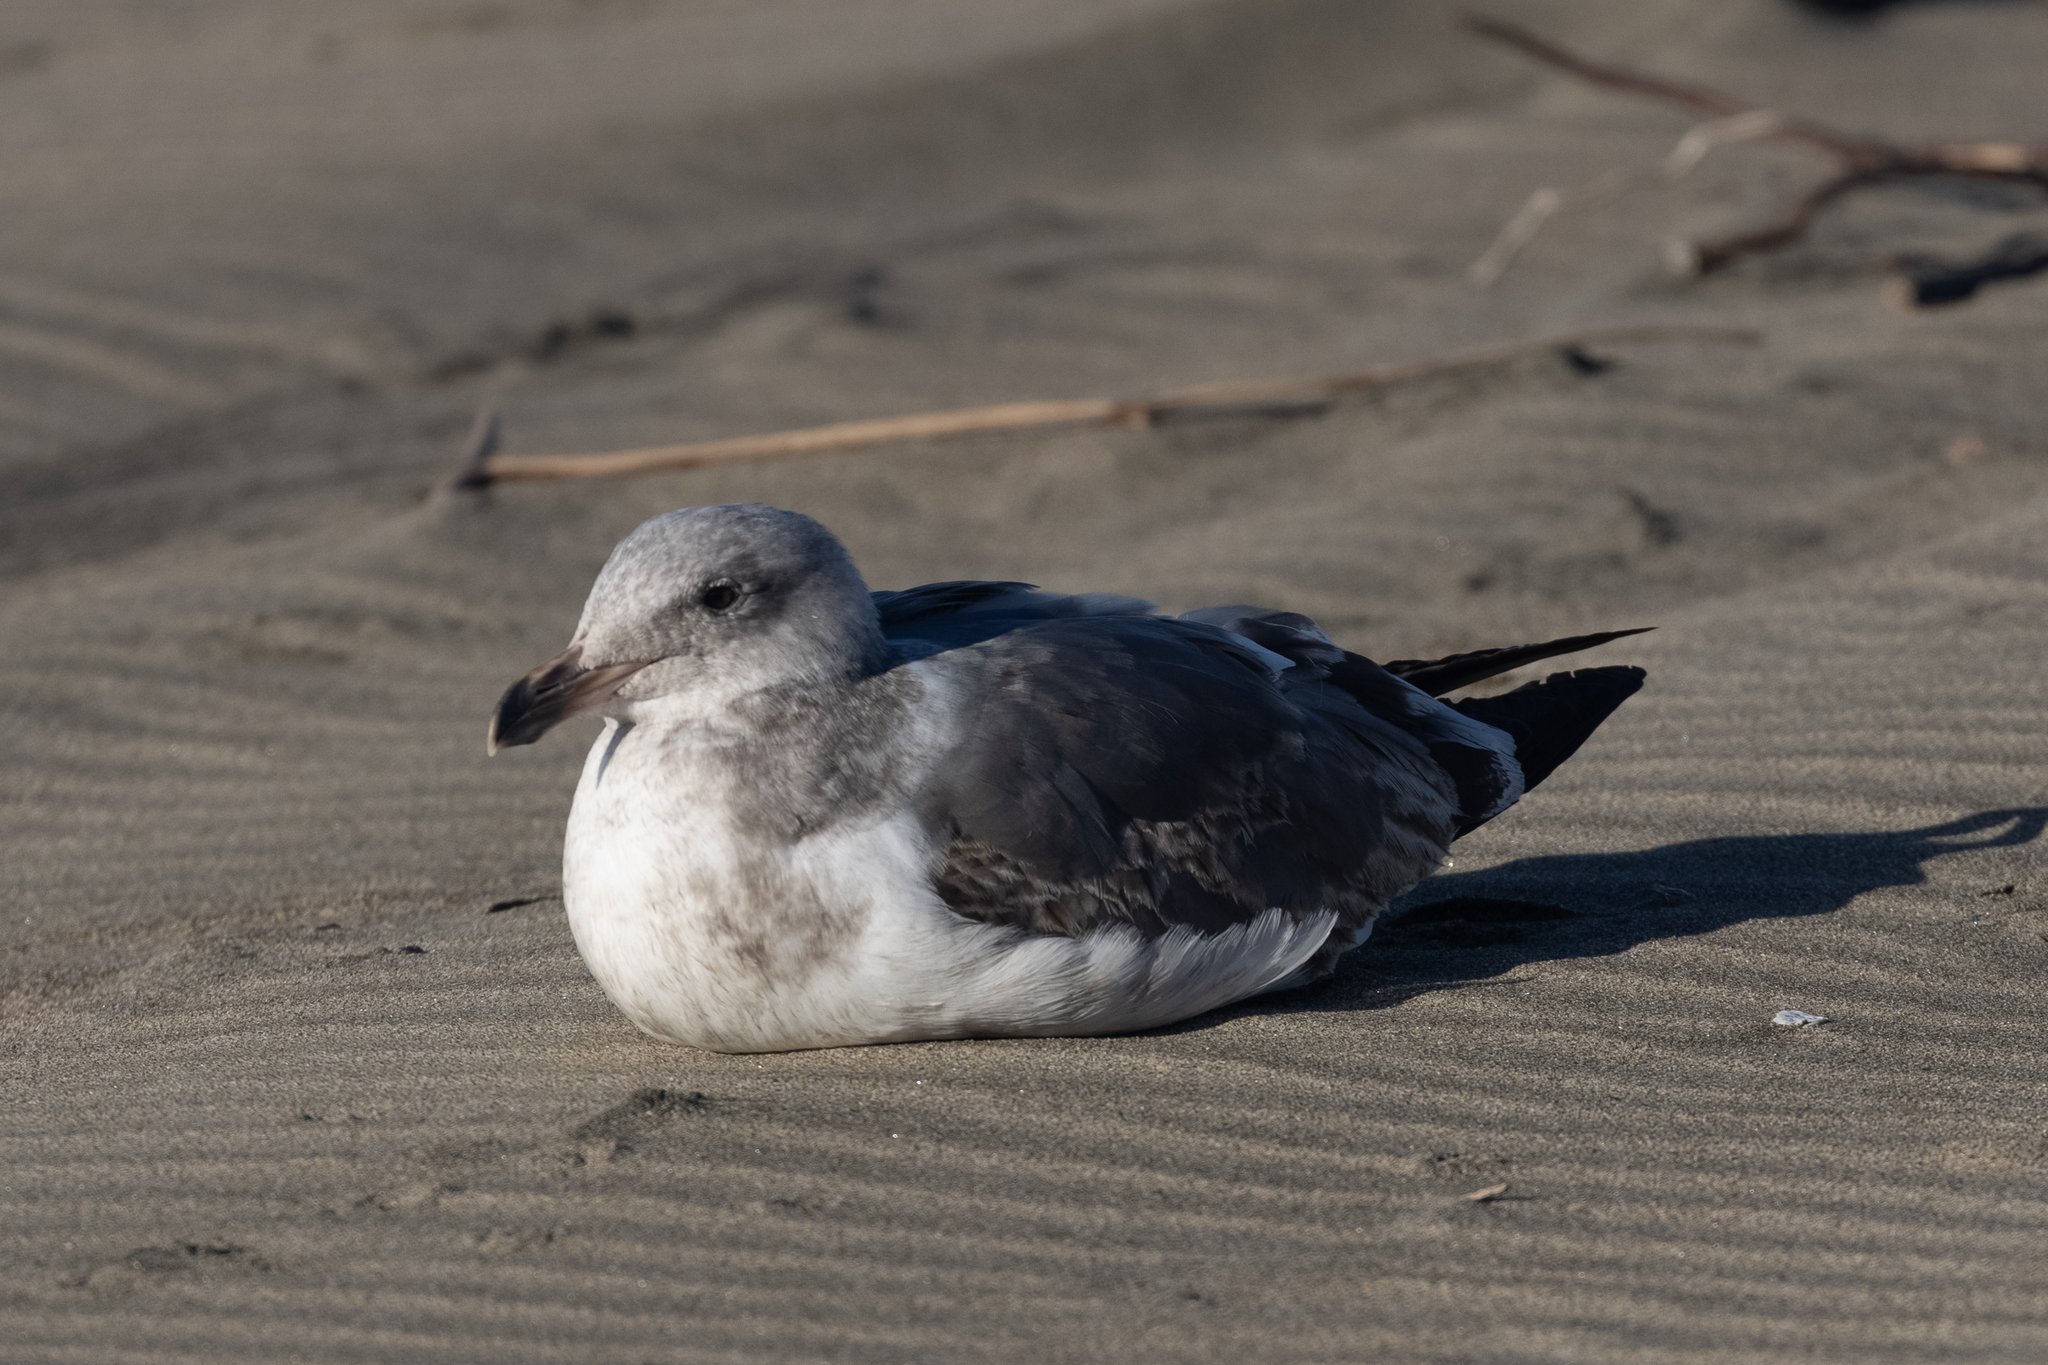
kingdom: Animalia
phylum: Chordata
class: Aves
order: Charadriiformes
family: Laridae
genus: Larus
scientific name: Larus occidentalis
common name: Western gull
